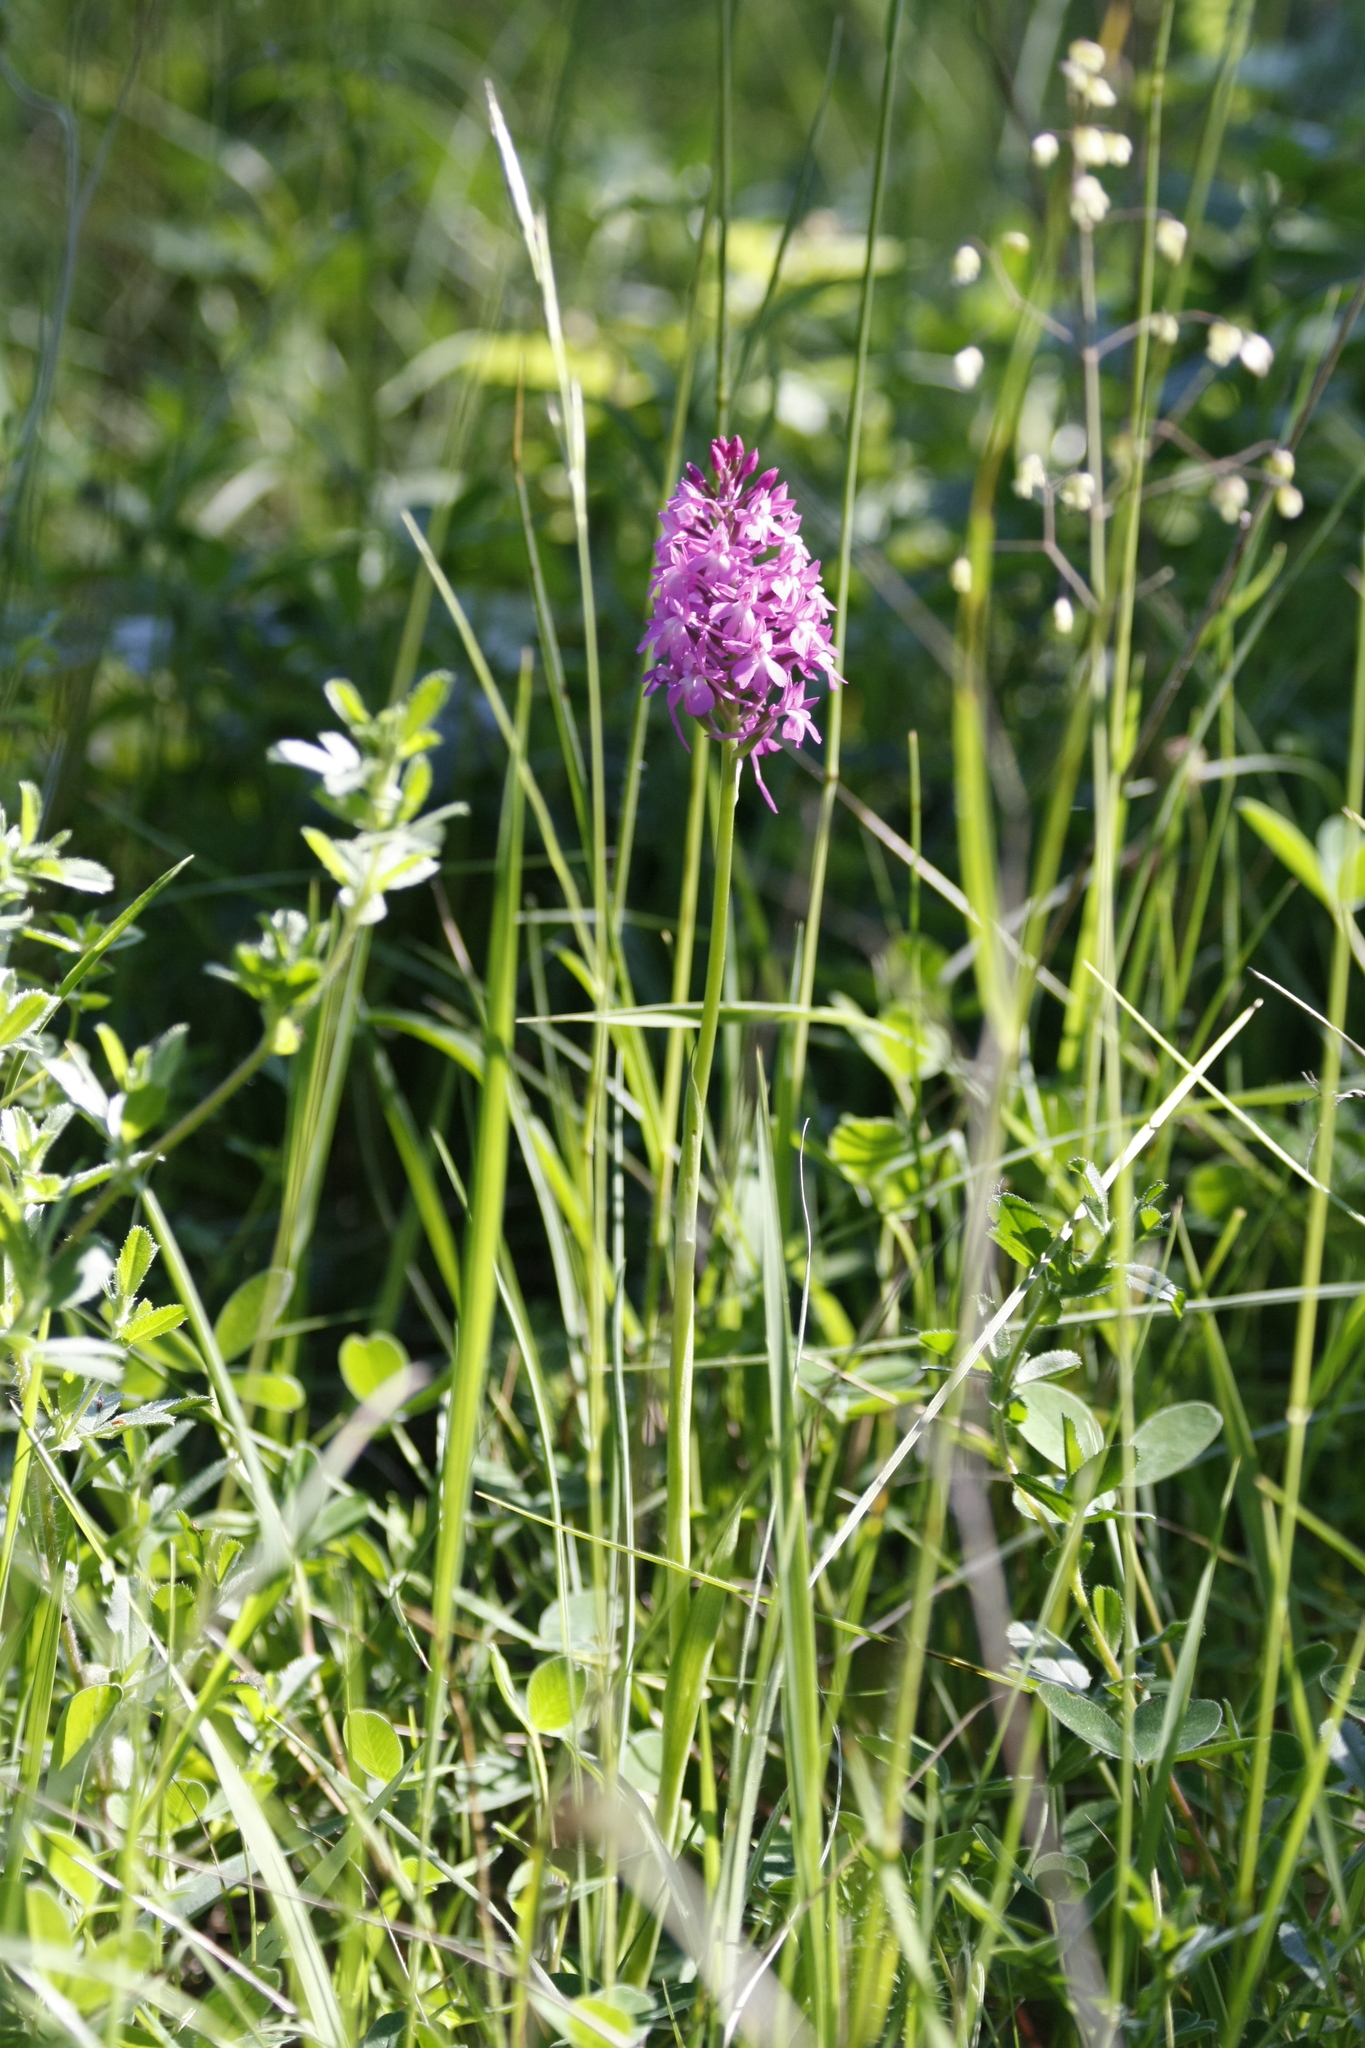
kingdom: Plantae
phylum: Tracheophyta
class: Liliopsida
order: Asparagales
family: Orchidaceae
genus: Anacamptis
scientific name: Anacamptis pyramidalis
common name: Pyramidal orchid
